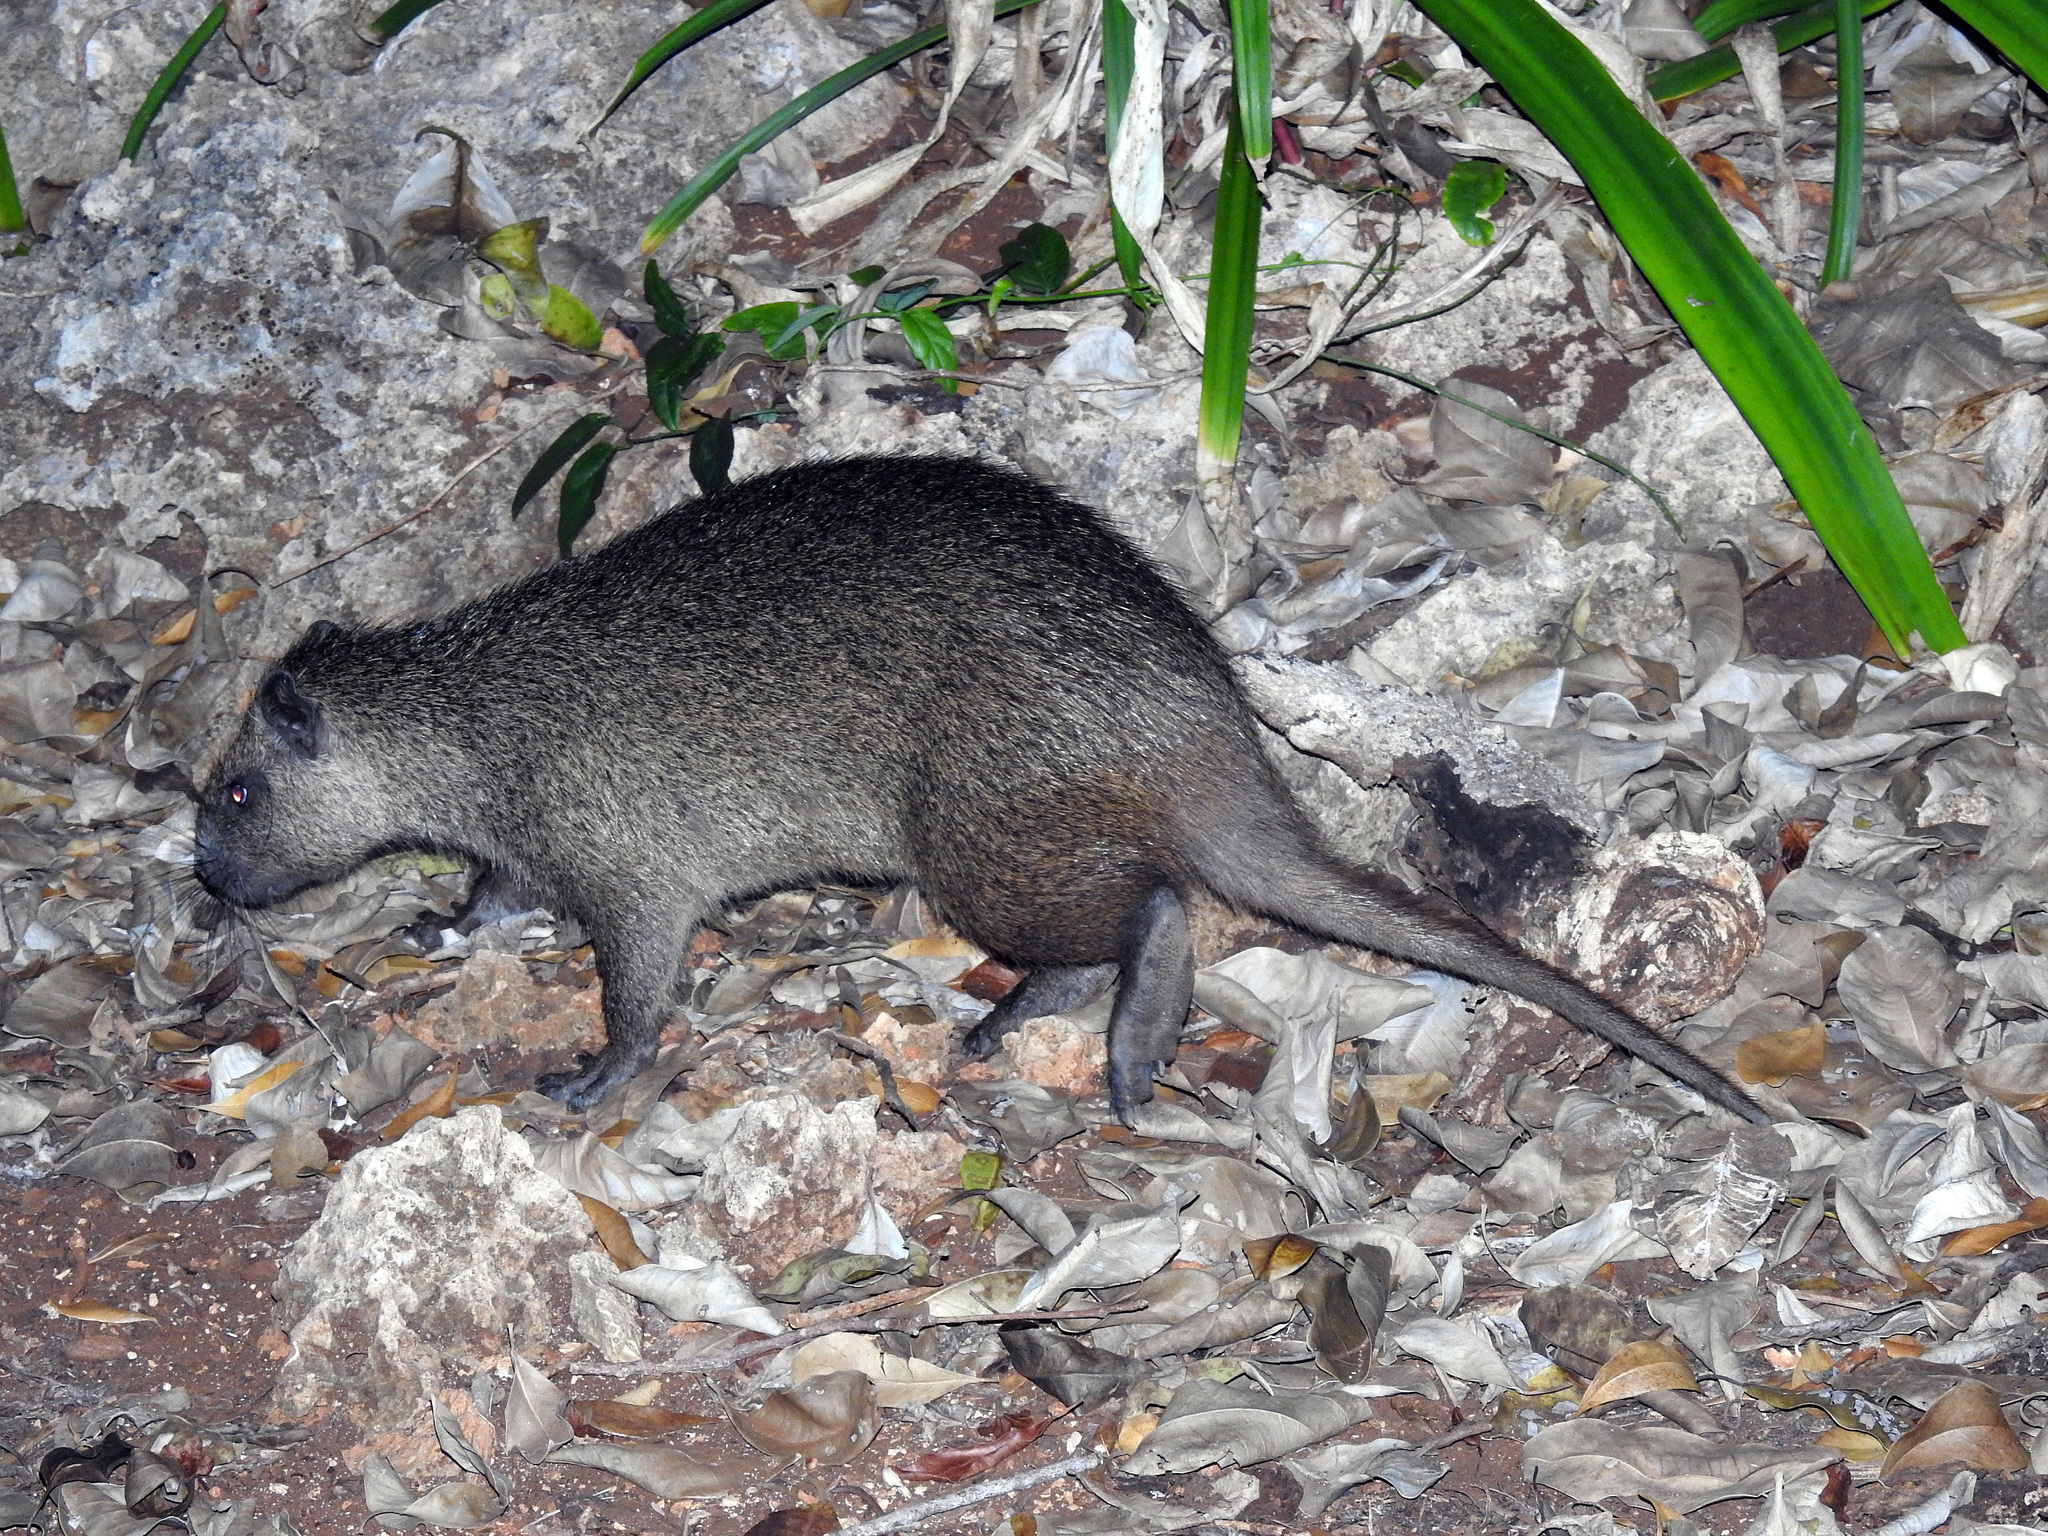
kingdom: Animalia
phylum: Chordata
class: Mammalia
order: Rodentia
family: Capromyidae
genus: Capromys
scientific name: Capromys pilorides
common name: Desmarest's hutia
